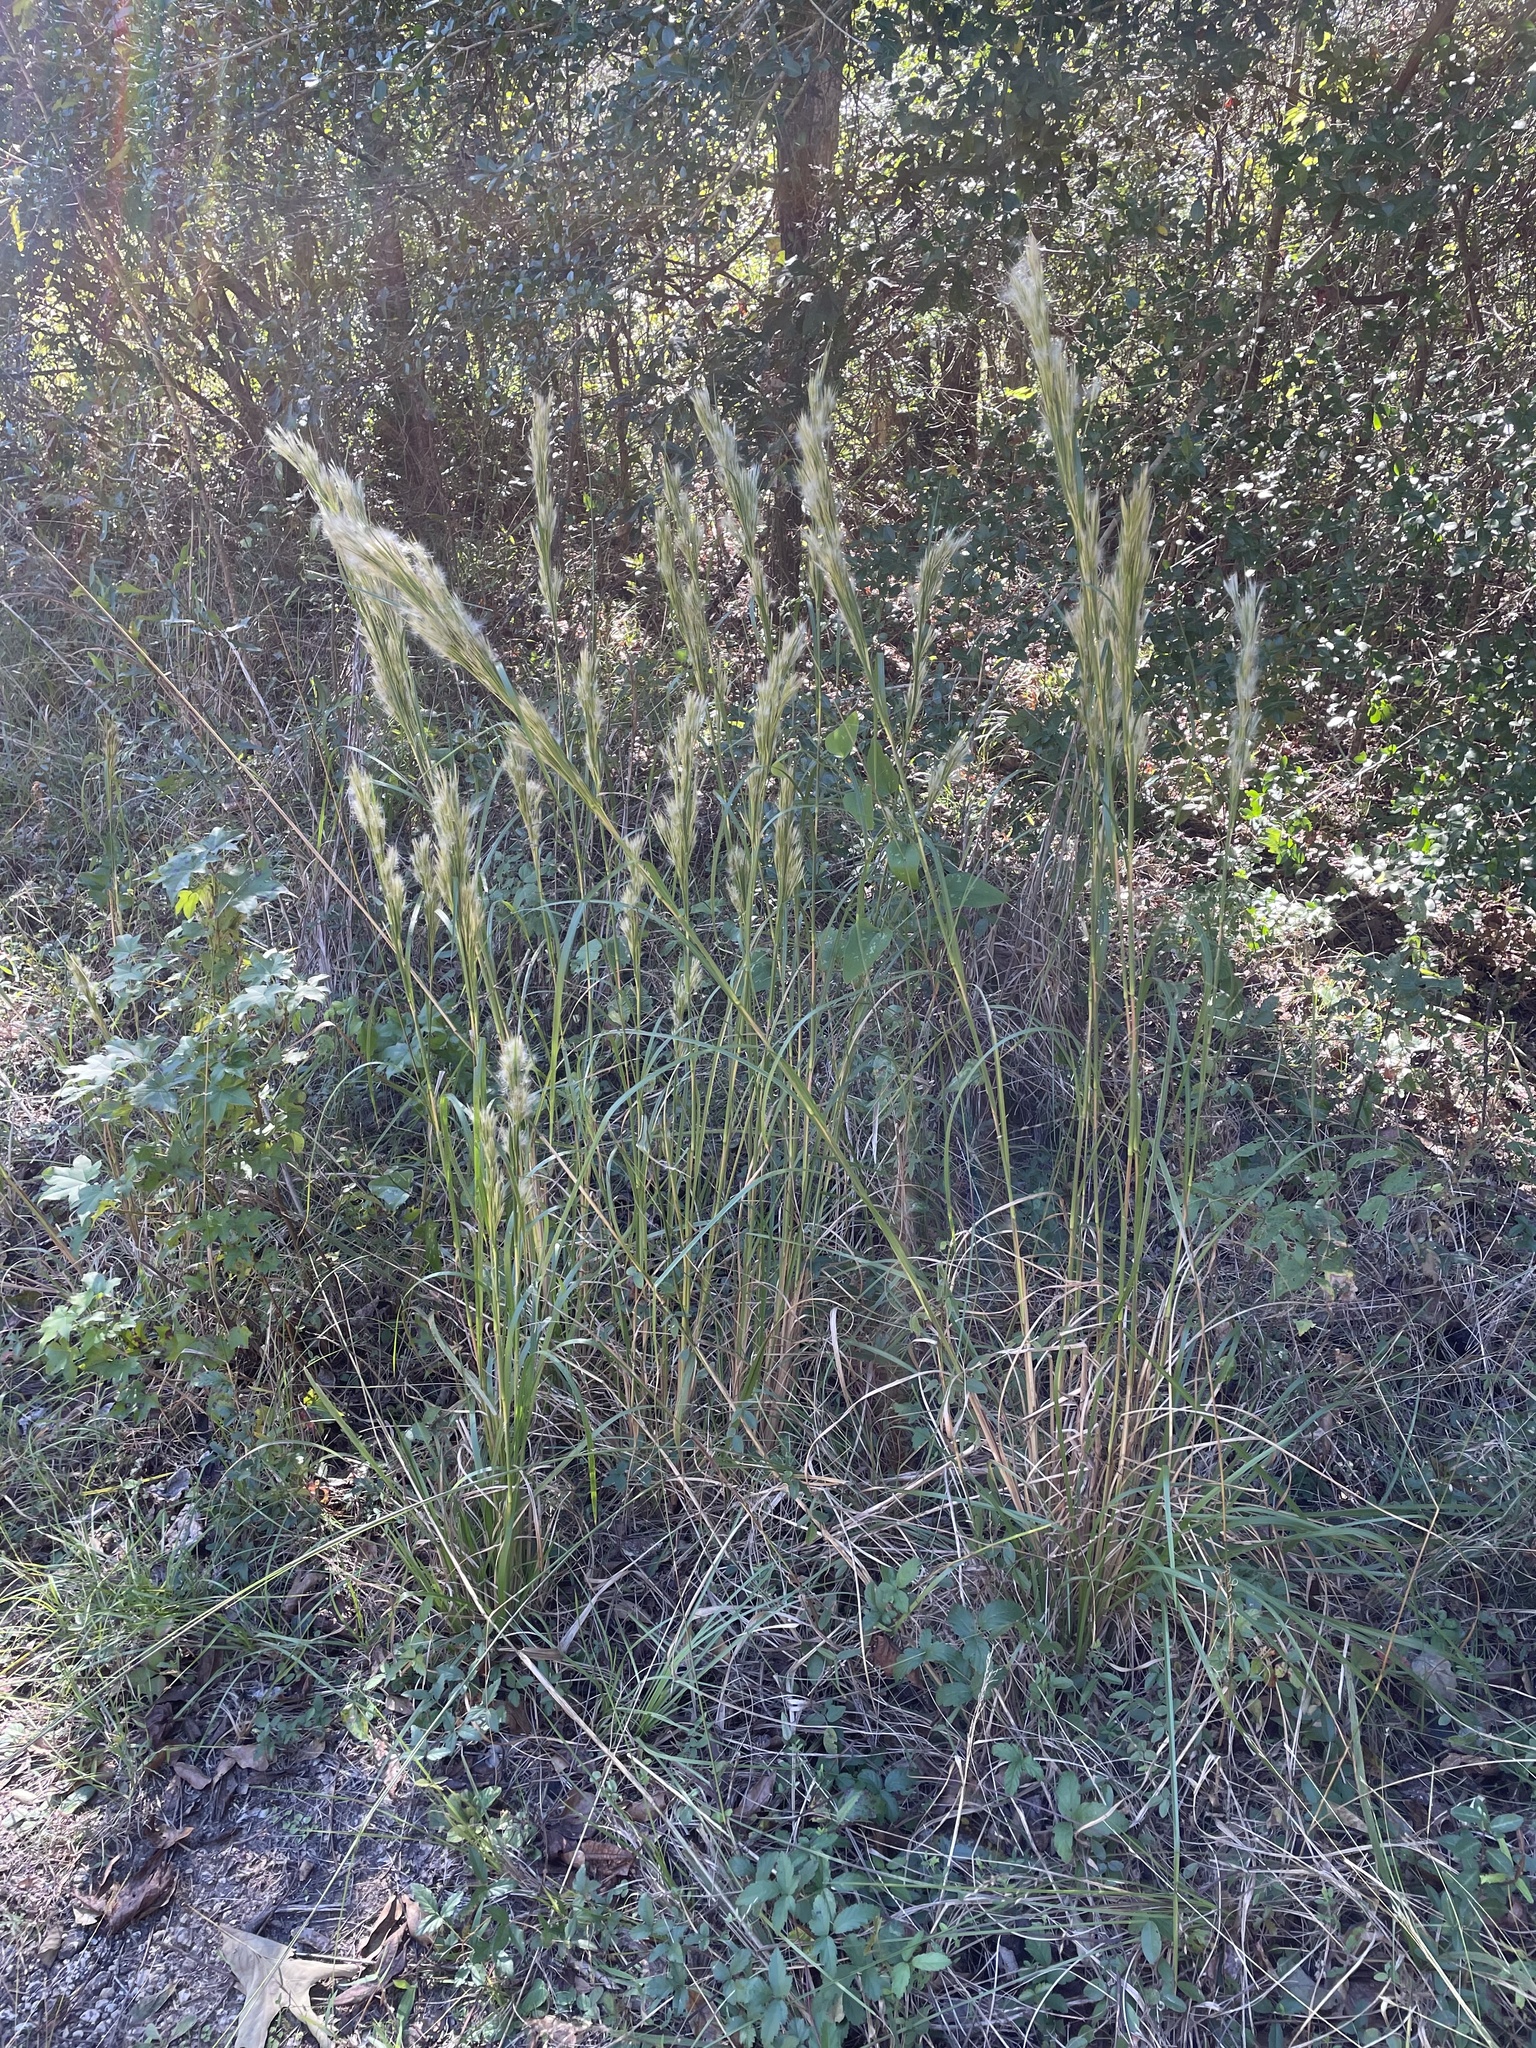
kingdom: Plantae
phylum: Tracheophyta
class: Liliopsida
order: Poales
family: Poaceae
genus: Andropogon
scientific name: Andropogon tenuispatheus
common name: Bushy bluestem
